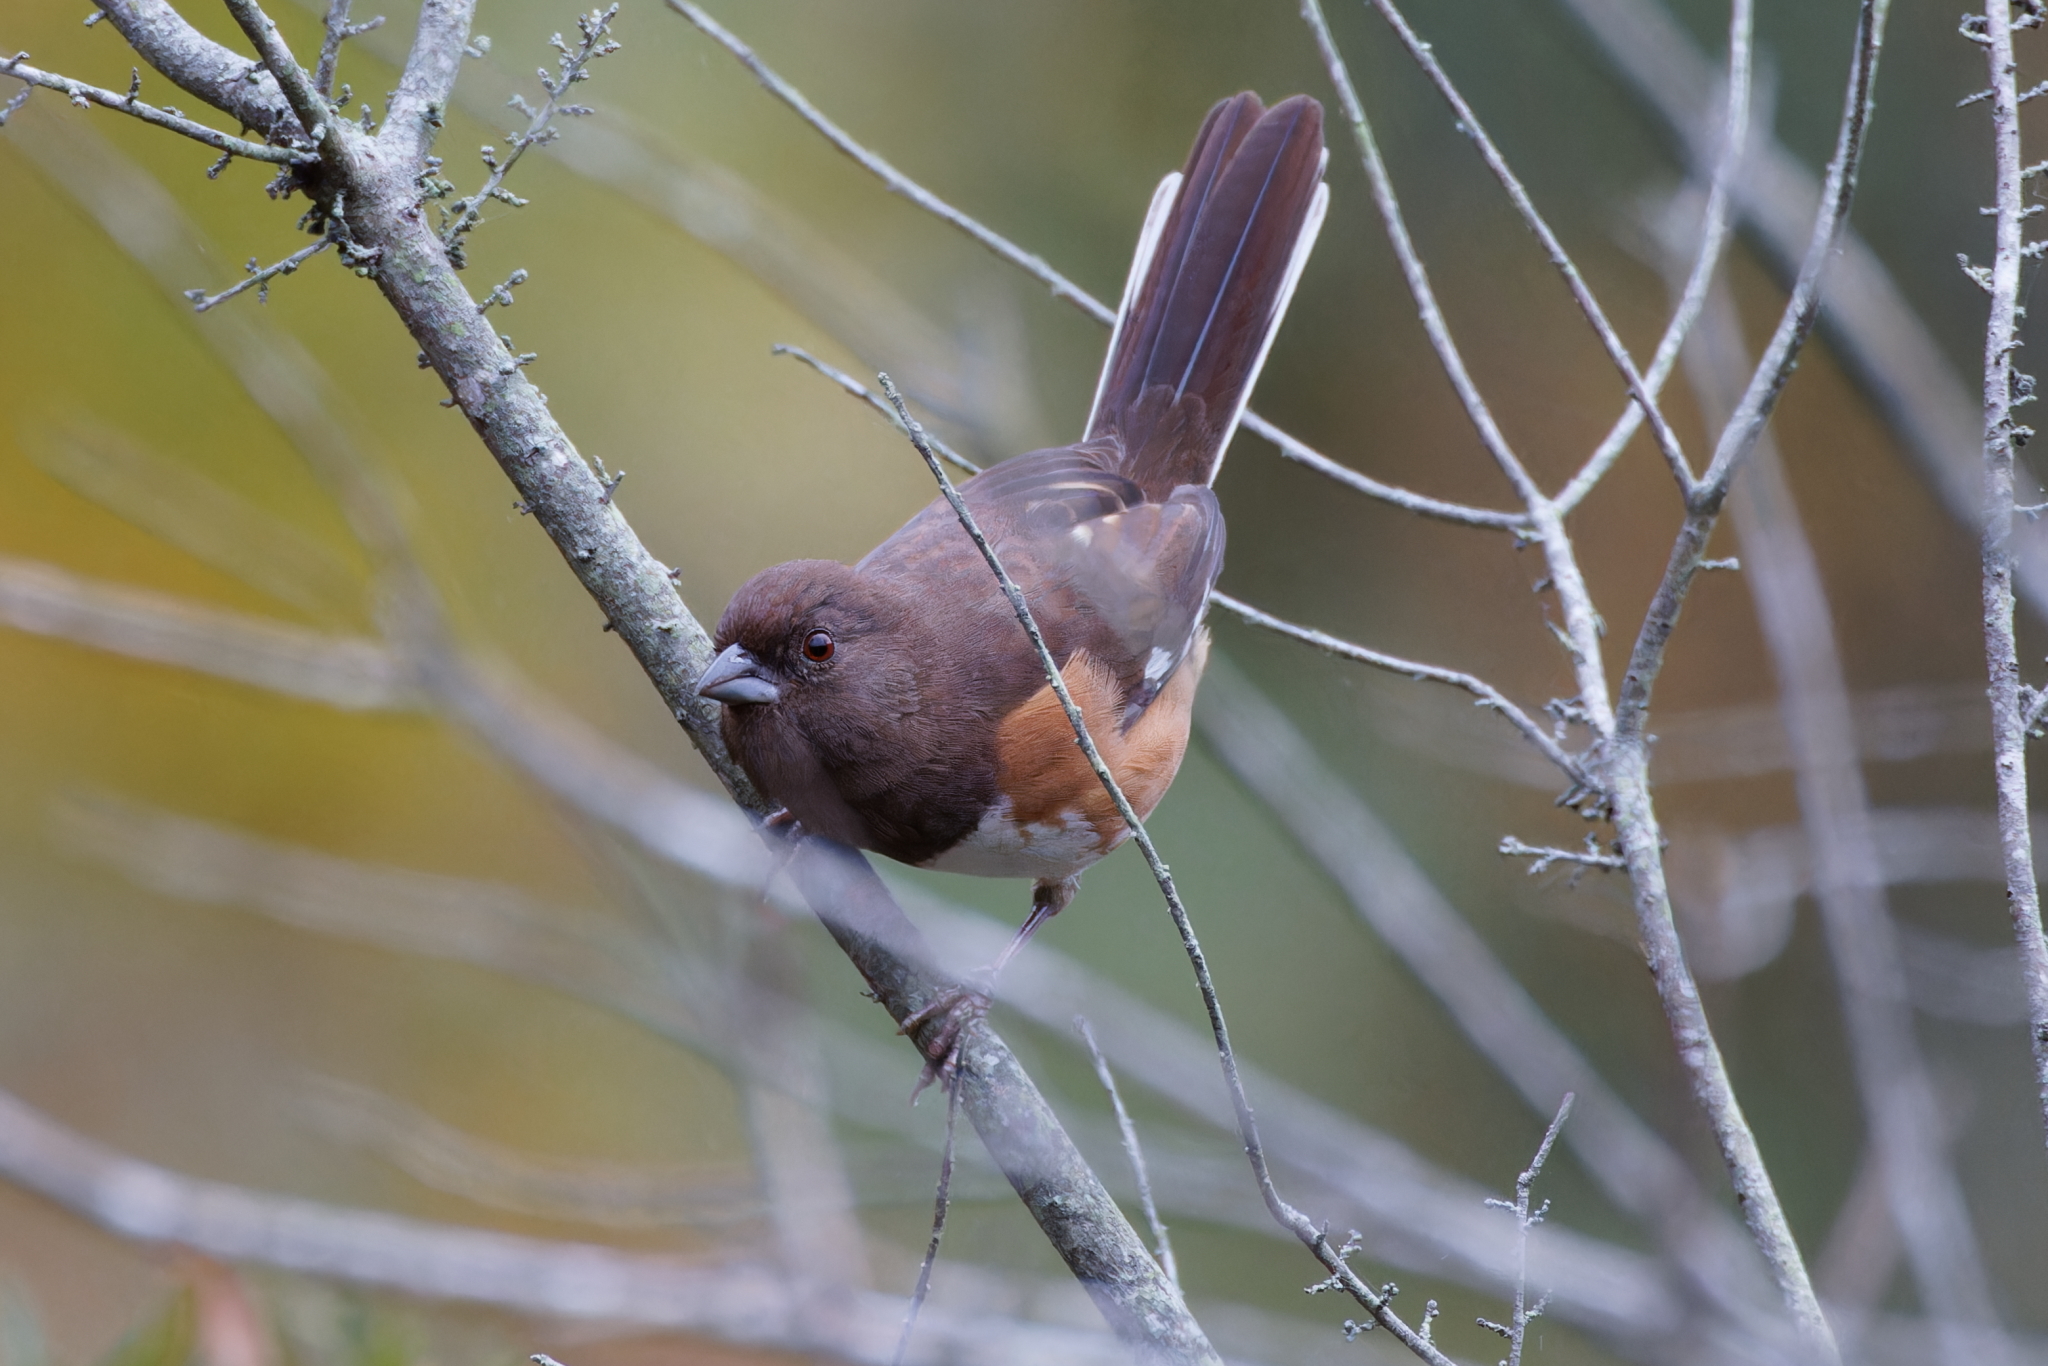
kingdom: Animalia
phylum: Chordata
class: Aves
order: Passeriformes
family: Passerellidae
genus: Pipilo
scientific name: Pipilo erythrophthalmus
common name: Eastern towhee
